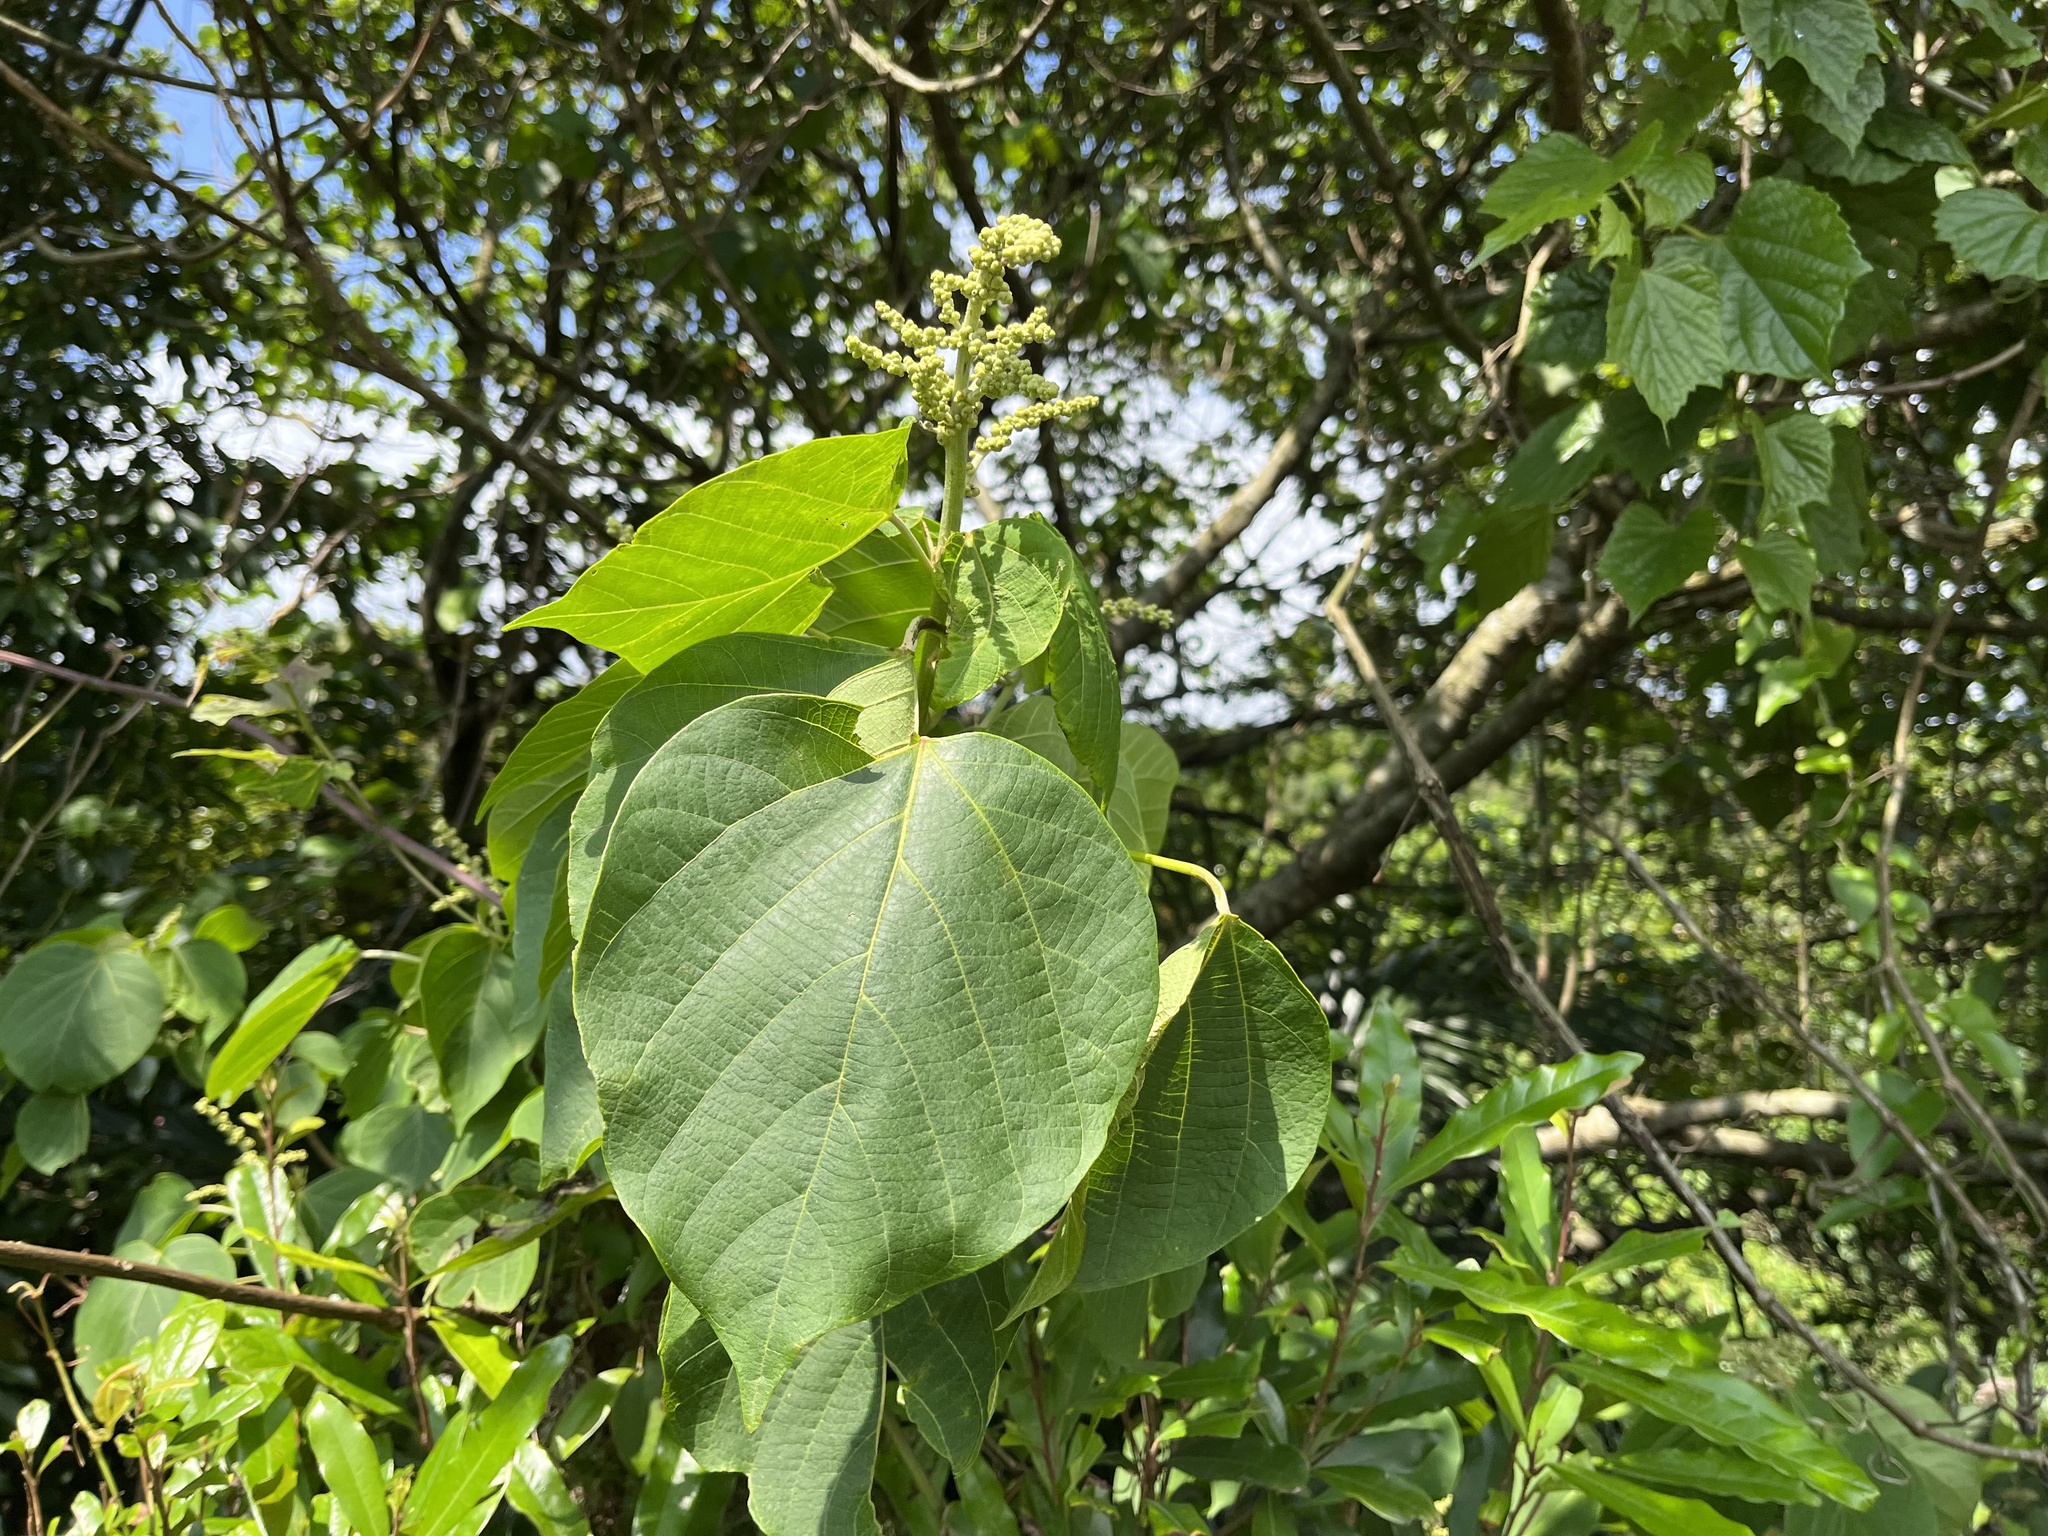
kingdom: Plantae
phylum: Tracheophyta
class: Magnoliopsida
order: Malpighiales
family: Euphorbiaceae
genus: Mallotus
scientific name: Mallotus japonicus
